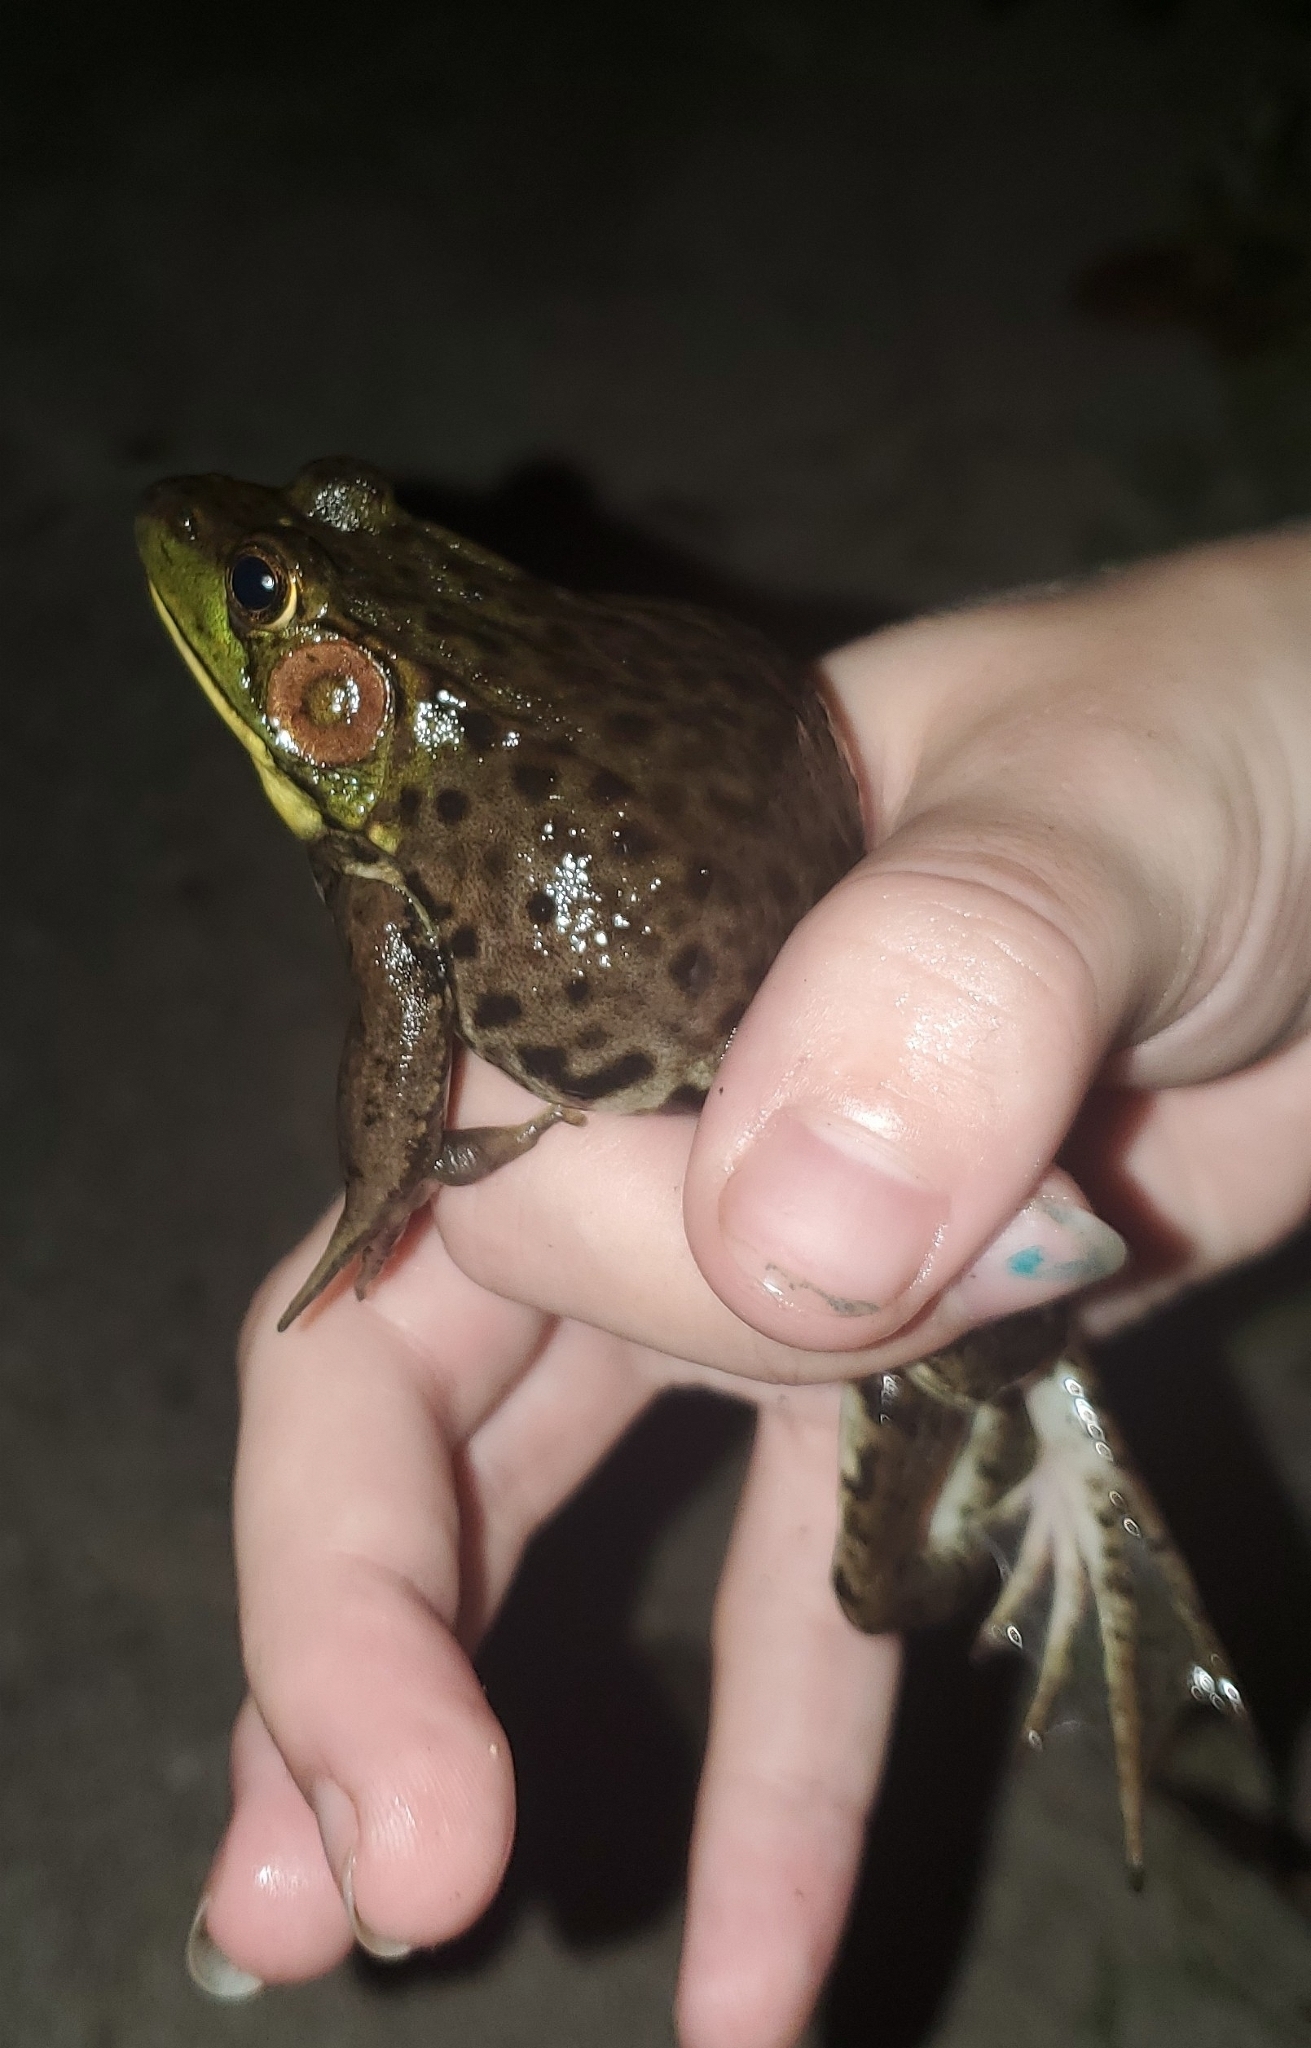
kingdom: Animalia
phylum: Chordata
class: Amphibia
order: Anura
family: Ranidae
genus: Lithobates
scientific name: Lithobates clamitans
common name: Green frog
